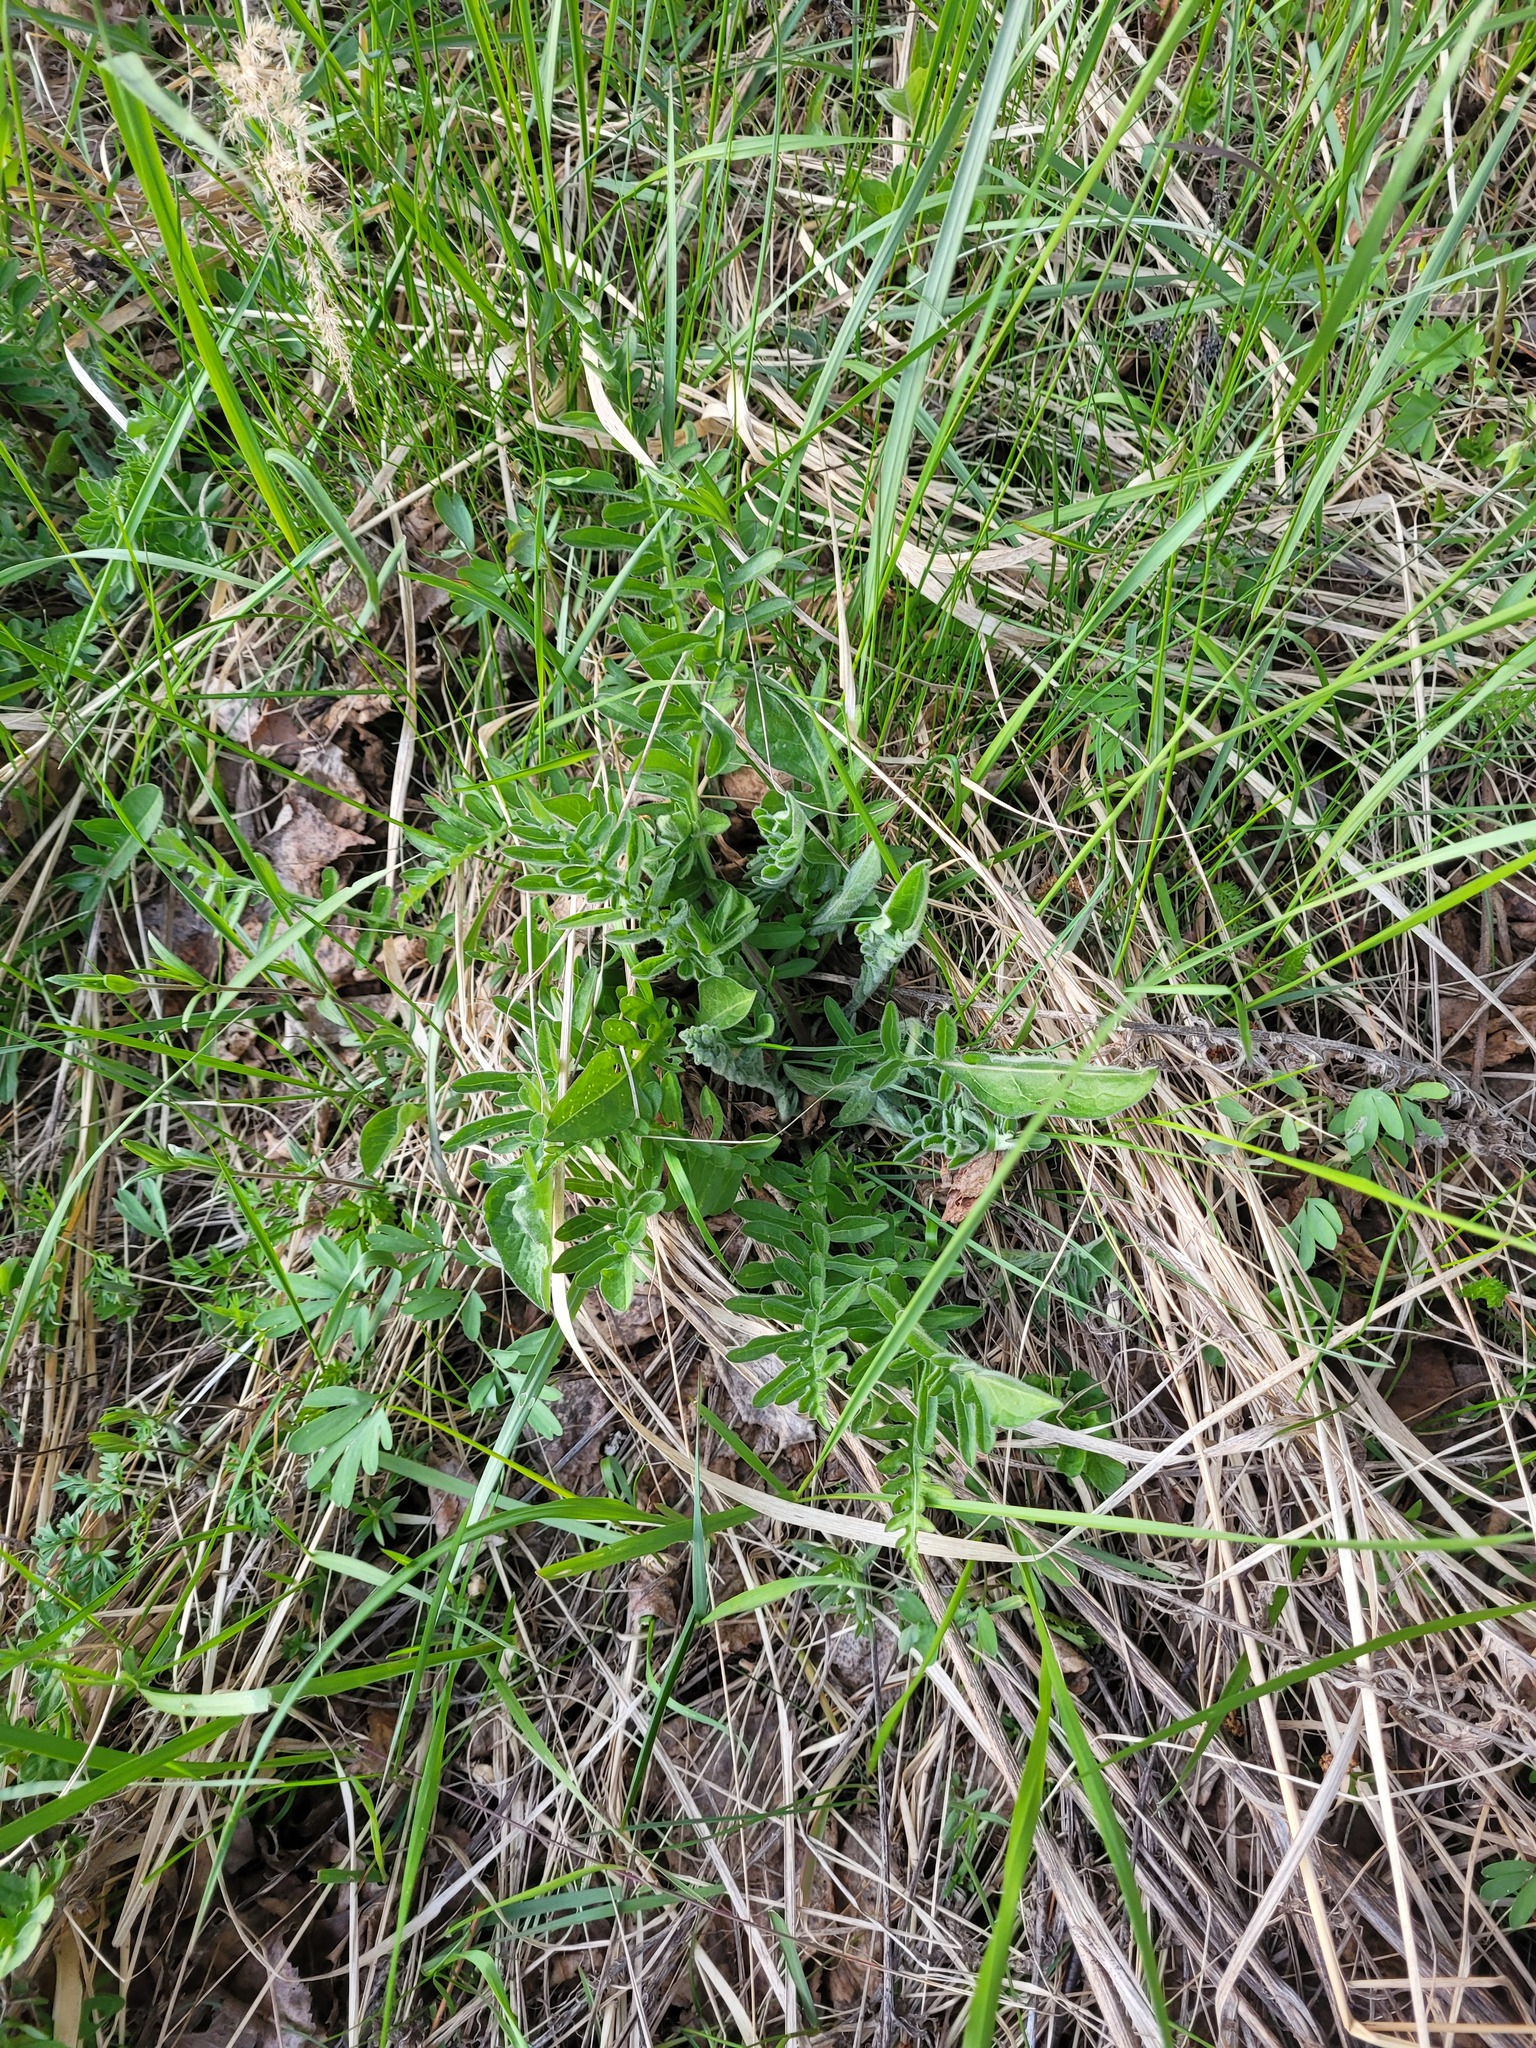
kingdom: Plantae
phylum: Tracheophyta
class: Magnoliopsida
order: Asterales
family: Asteraceae
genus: Centaurea
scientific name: Centaurea scabiosa
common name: Greater knapweed
